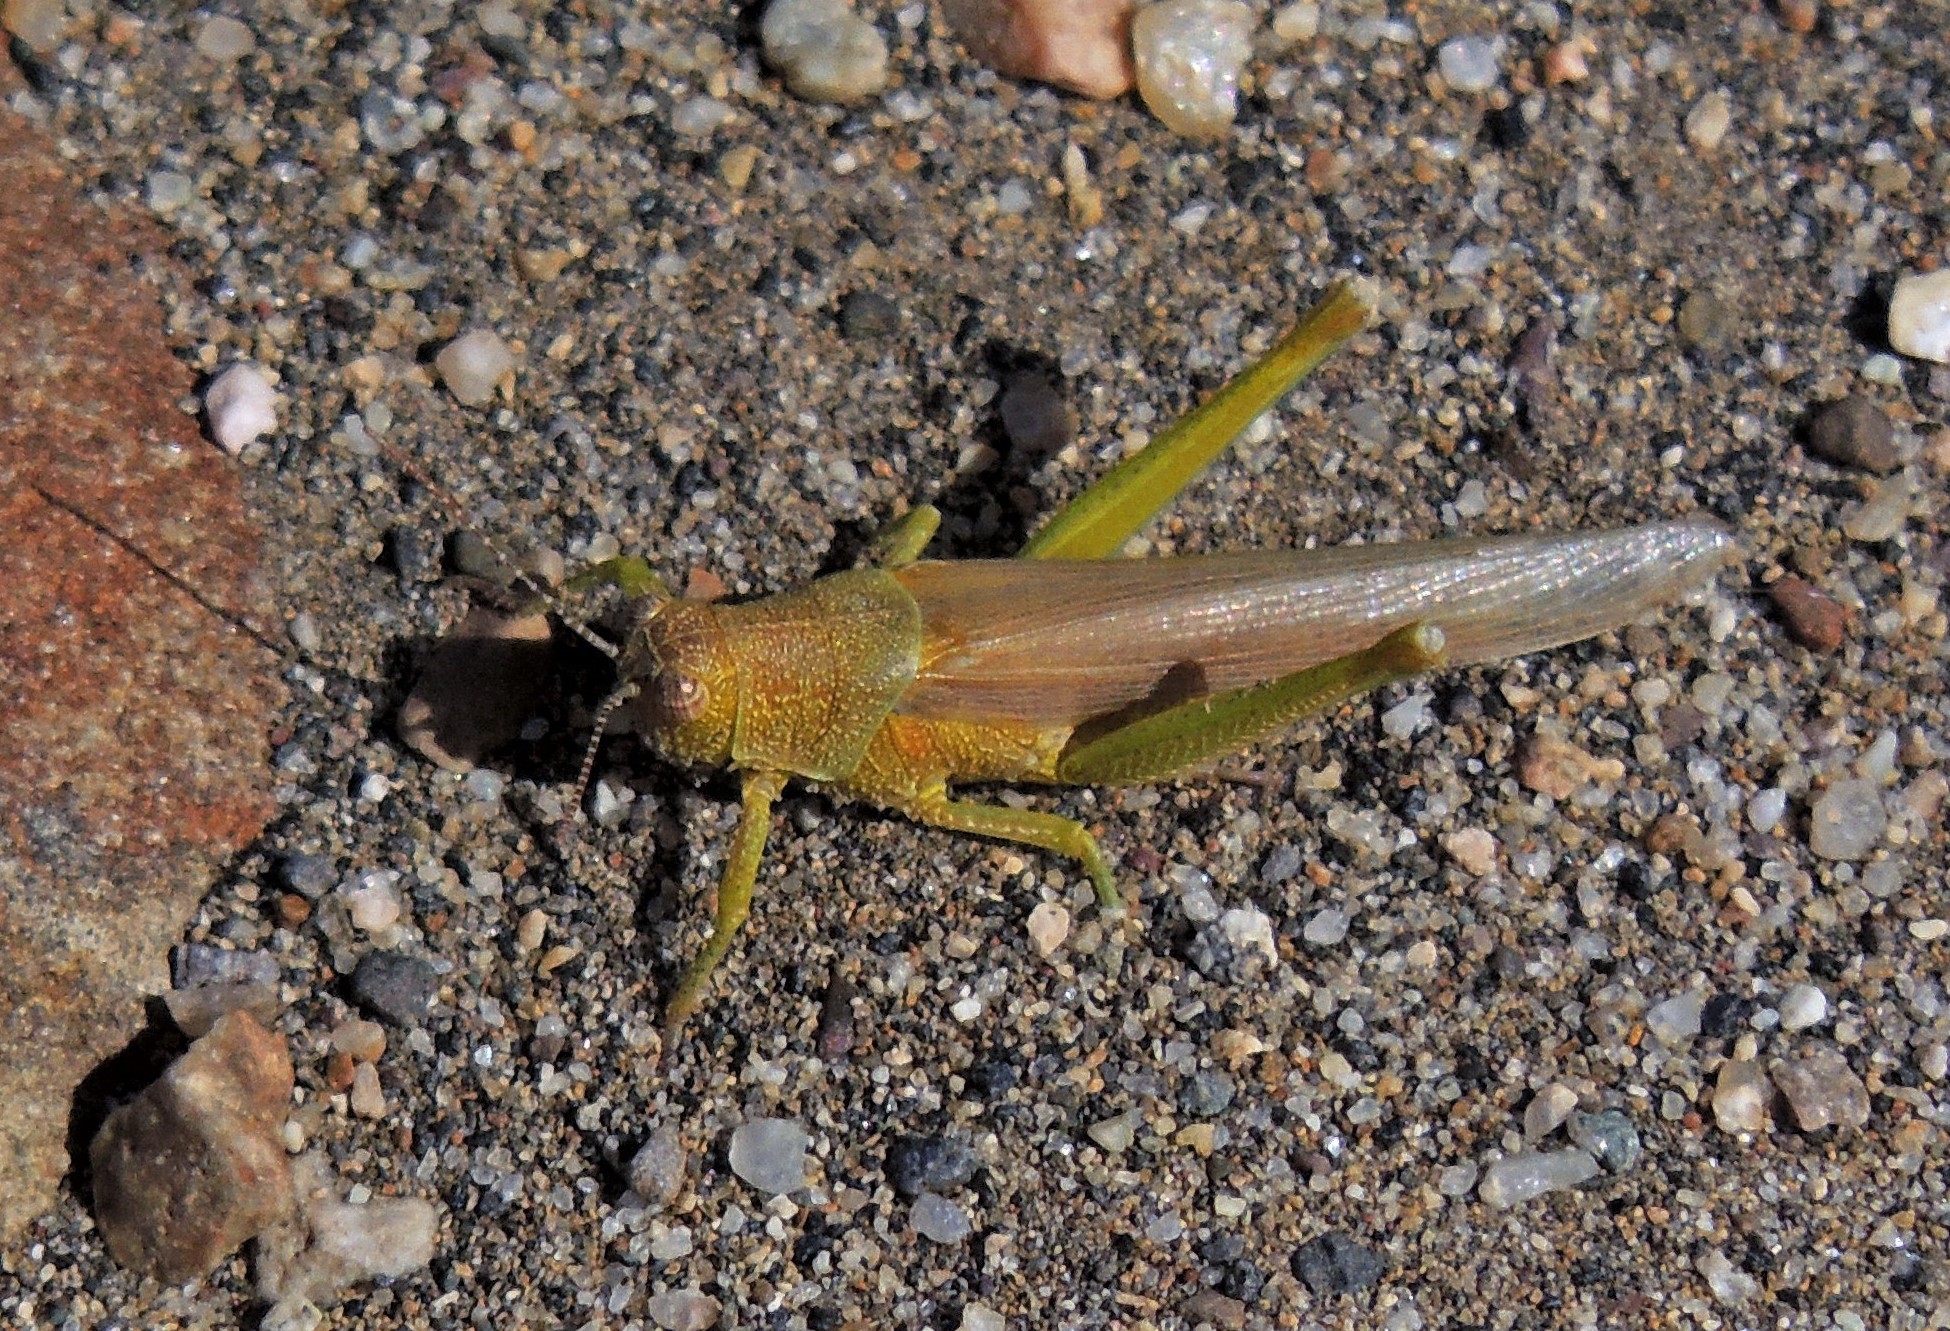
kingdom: Animalia
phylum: Arthropoda
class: Insecta
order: Orthoptera
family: Ommexechidae
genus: Clarazella
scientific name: Clarazella patagona
